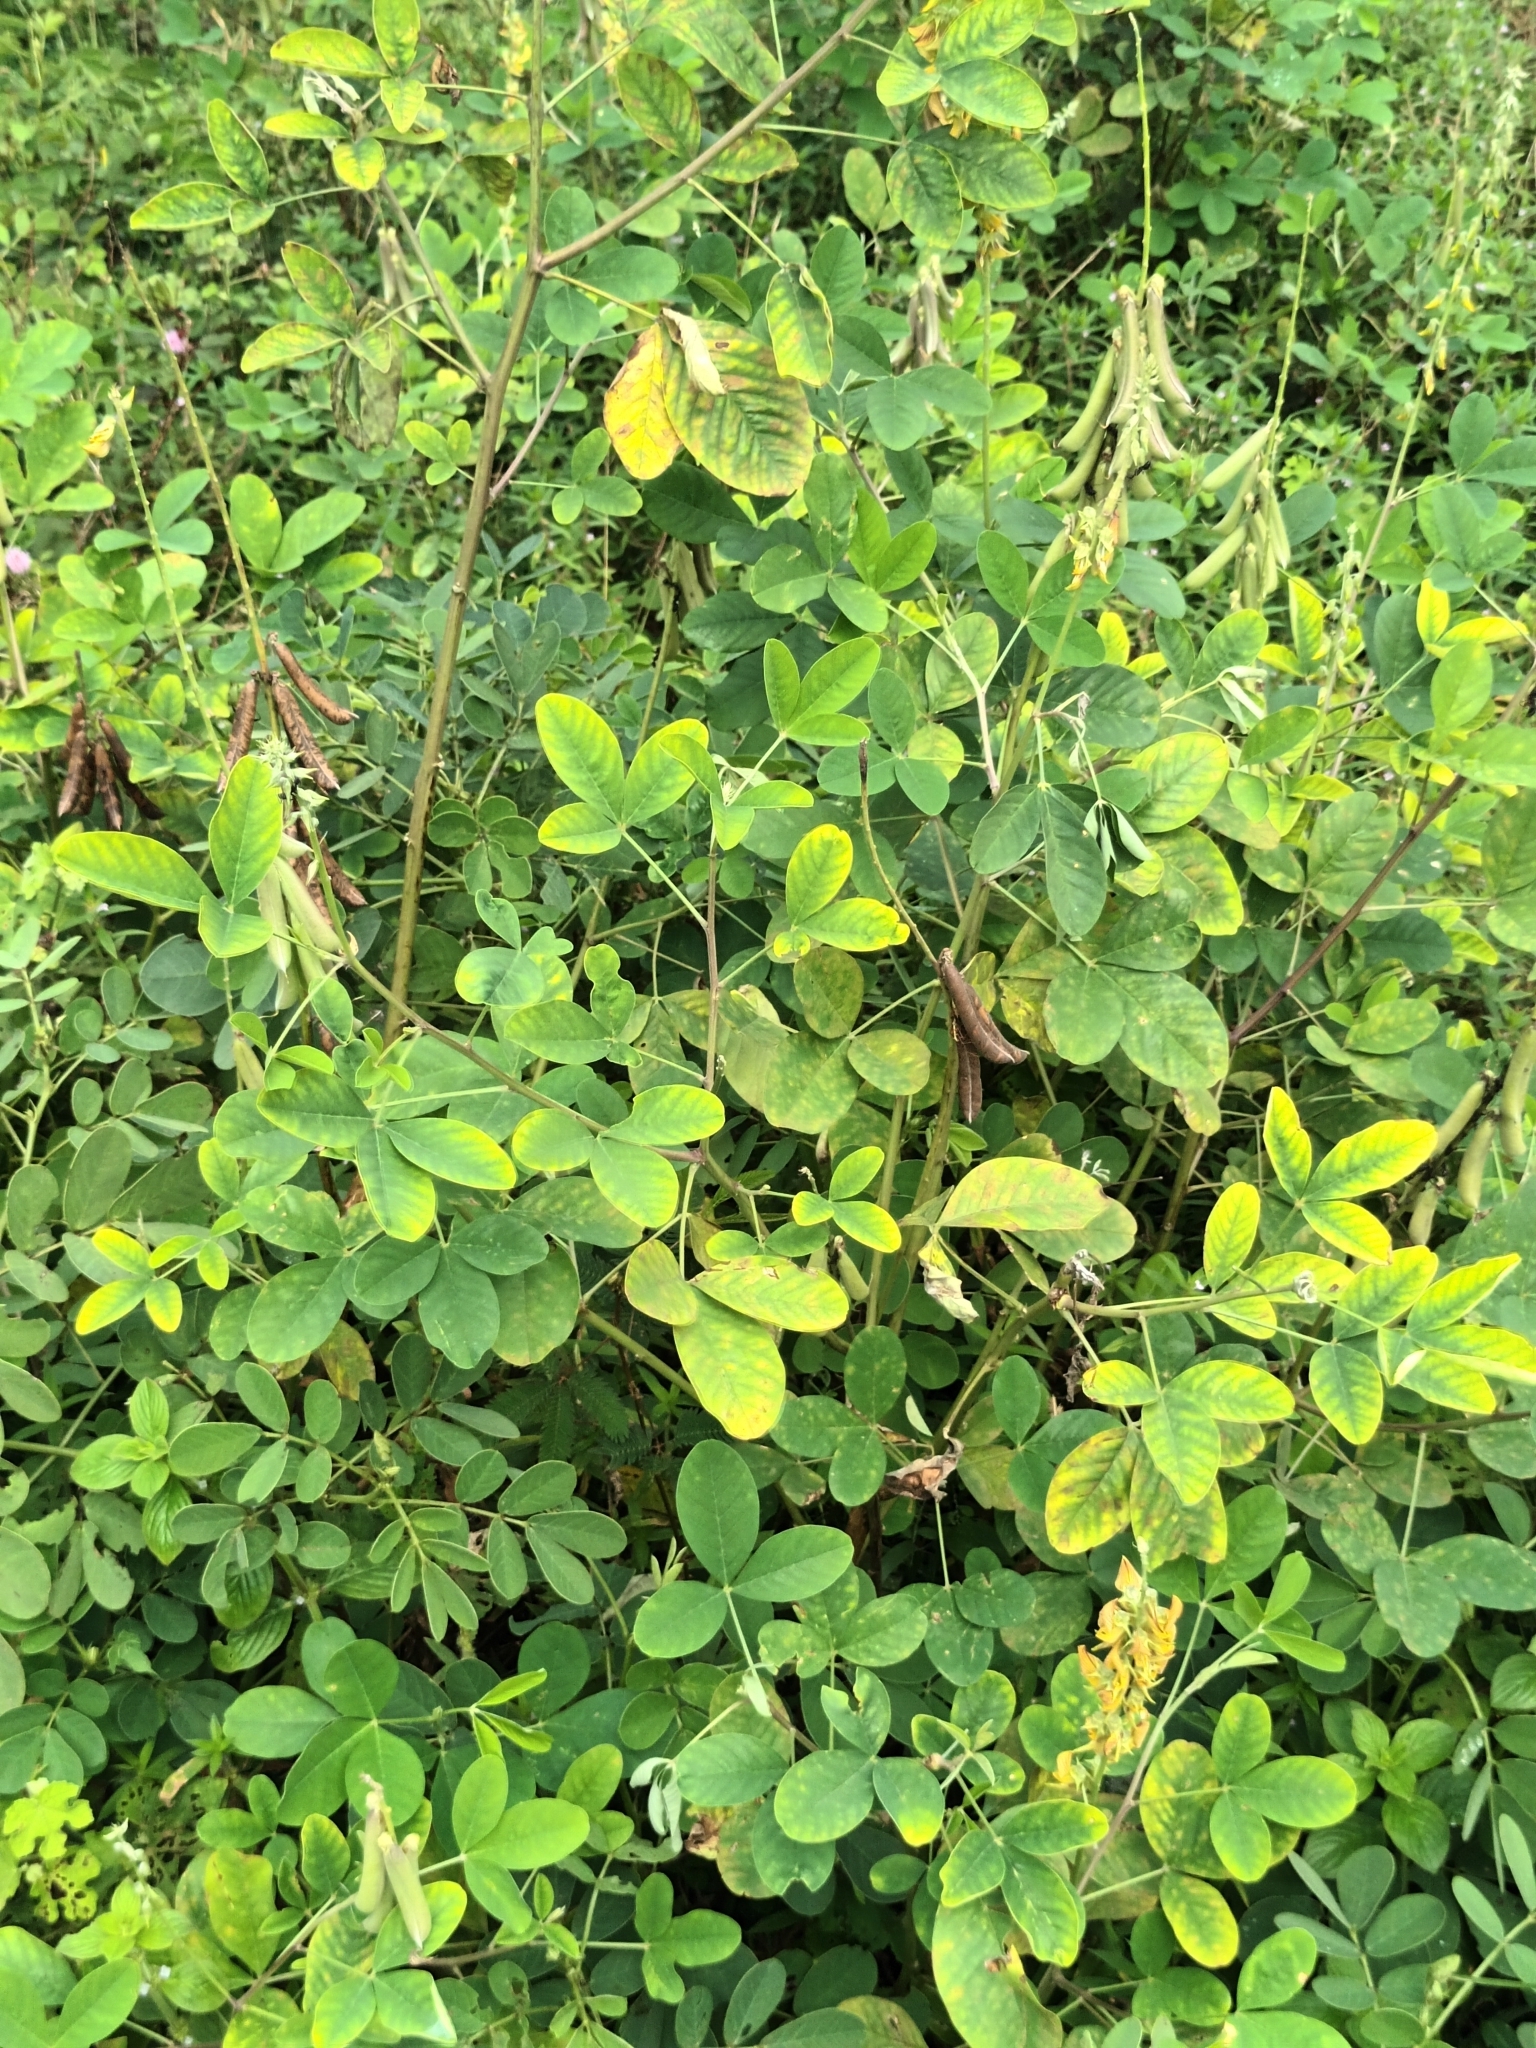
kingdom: Plantae
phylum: Tracheophyta
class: Magnoliopsida
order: Fabales
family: Fabaceae
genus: Crotalaria
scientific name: Crotalaria pallida
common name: Smooth rattlebox
